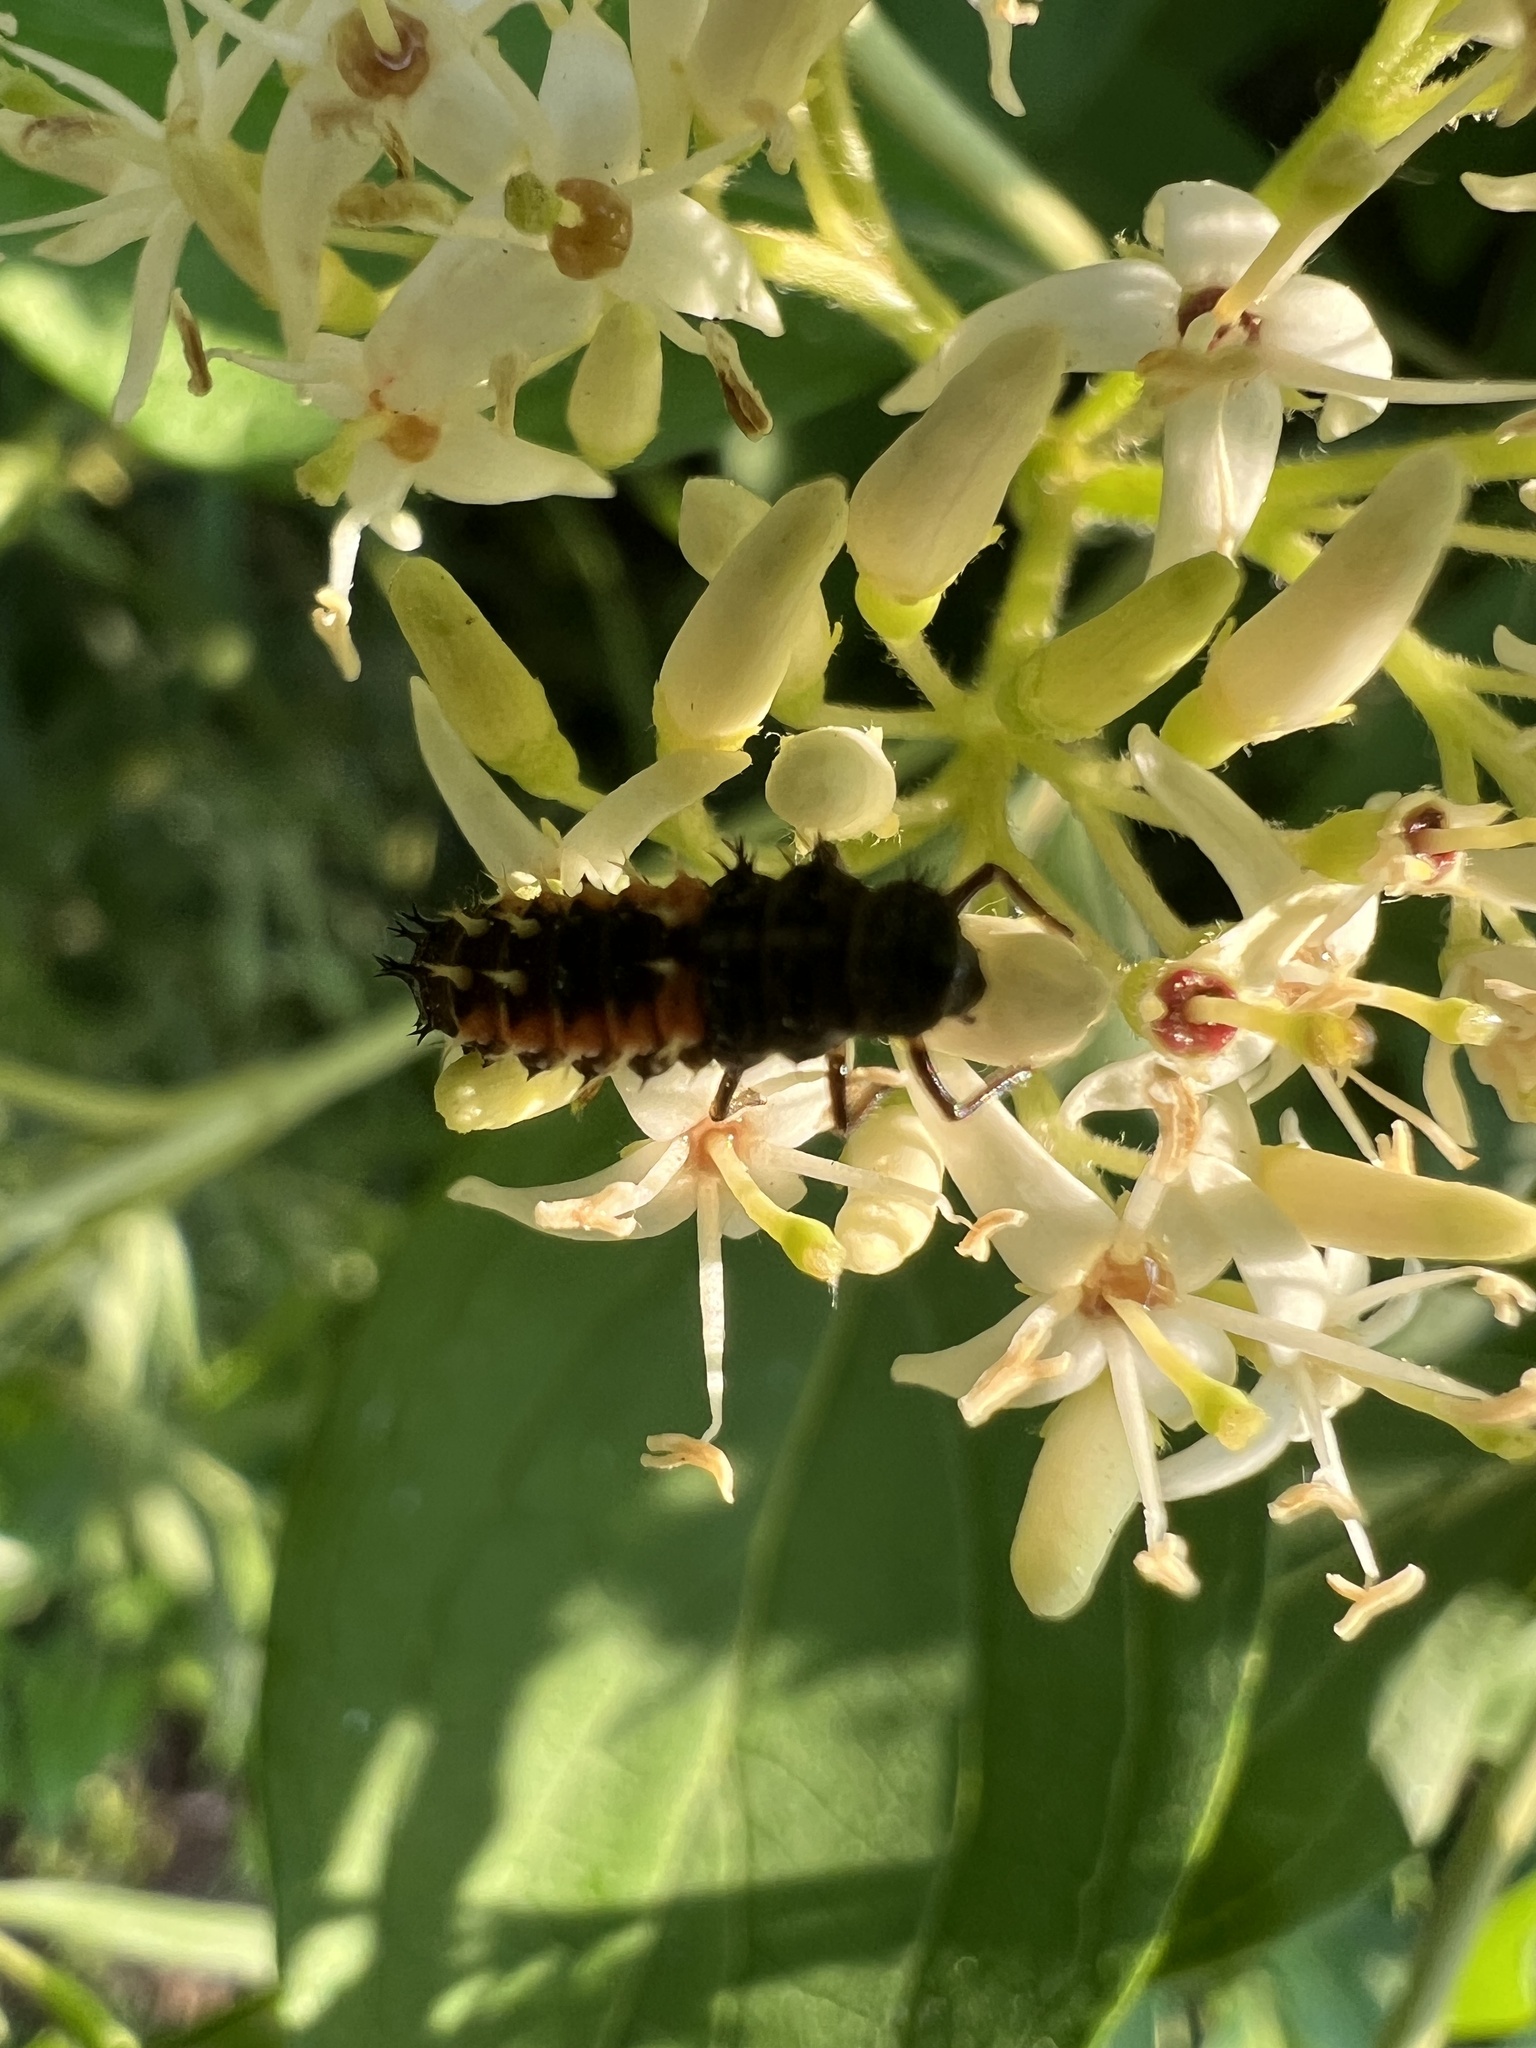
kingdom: Animalia
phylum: Arthropoda
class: Insecta
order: Coleoptera
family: Coccinellidae
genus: Harmonia
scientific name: Harmonia axyridis
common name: Harlequin ladybird
